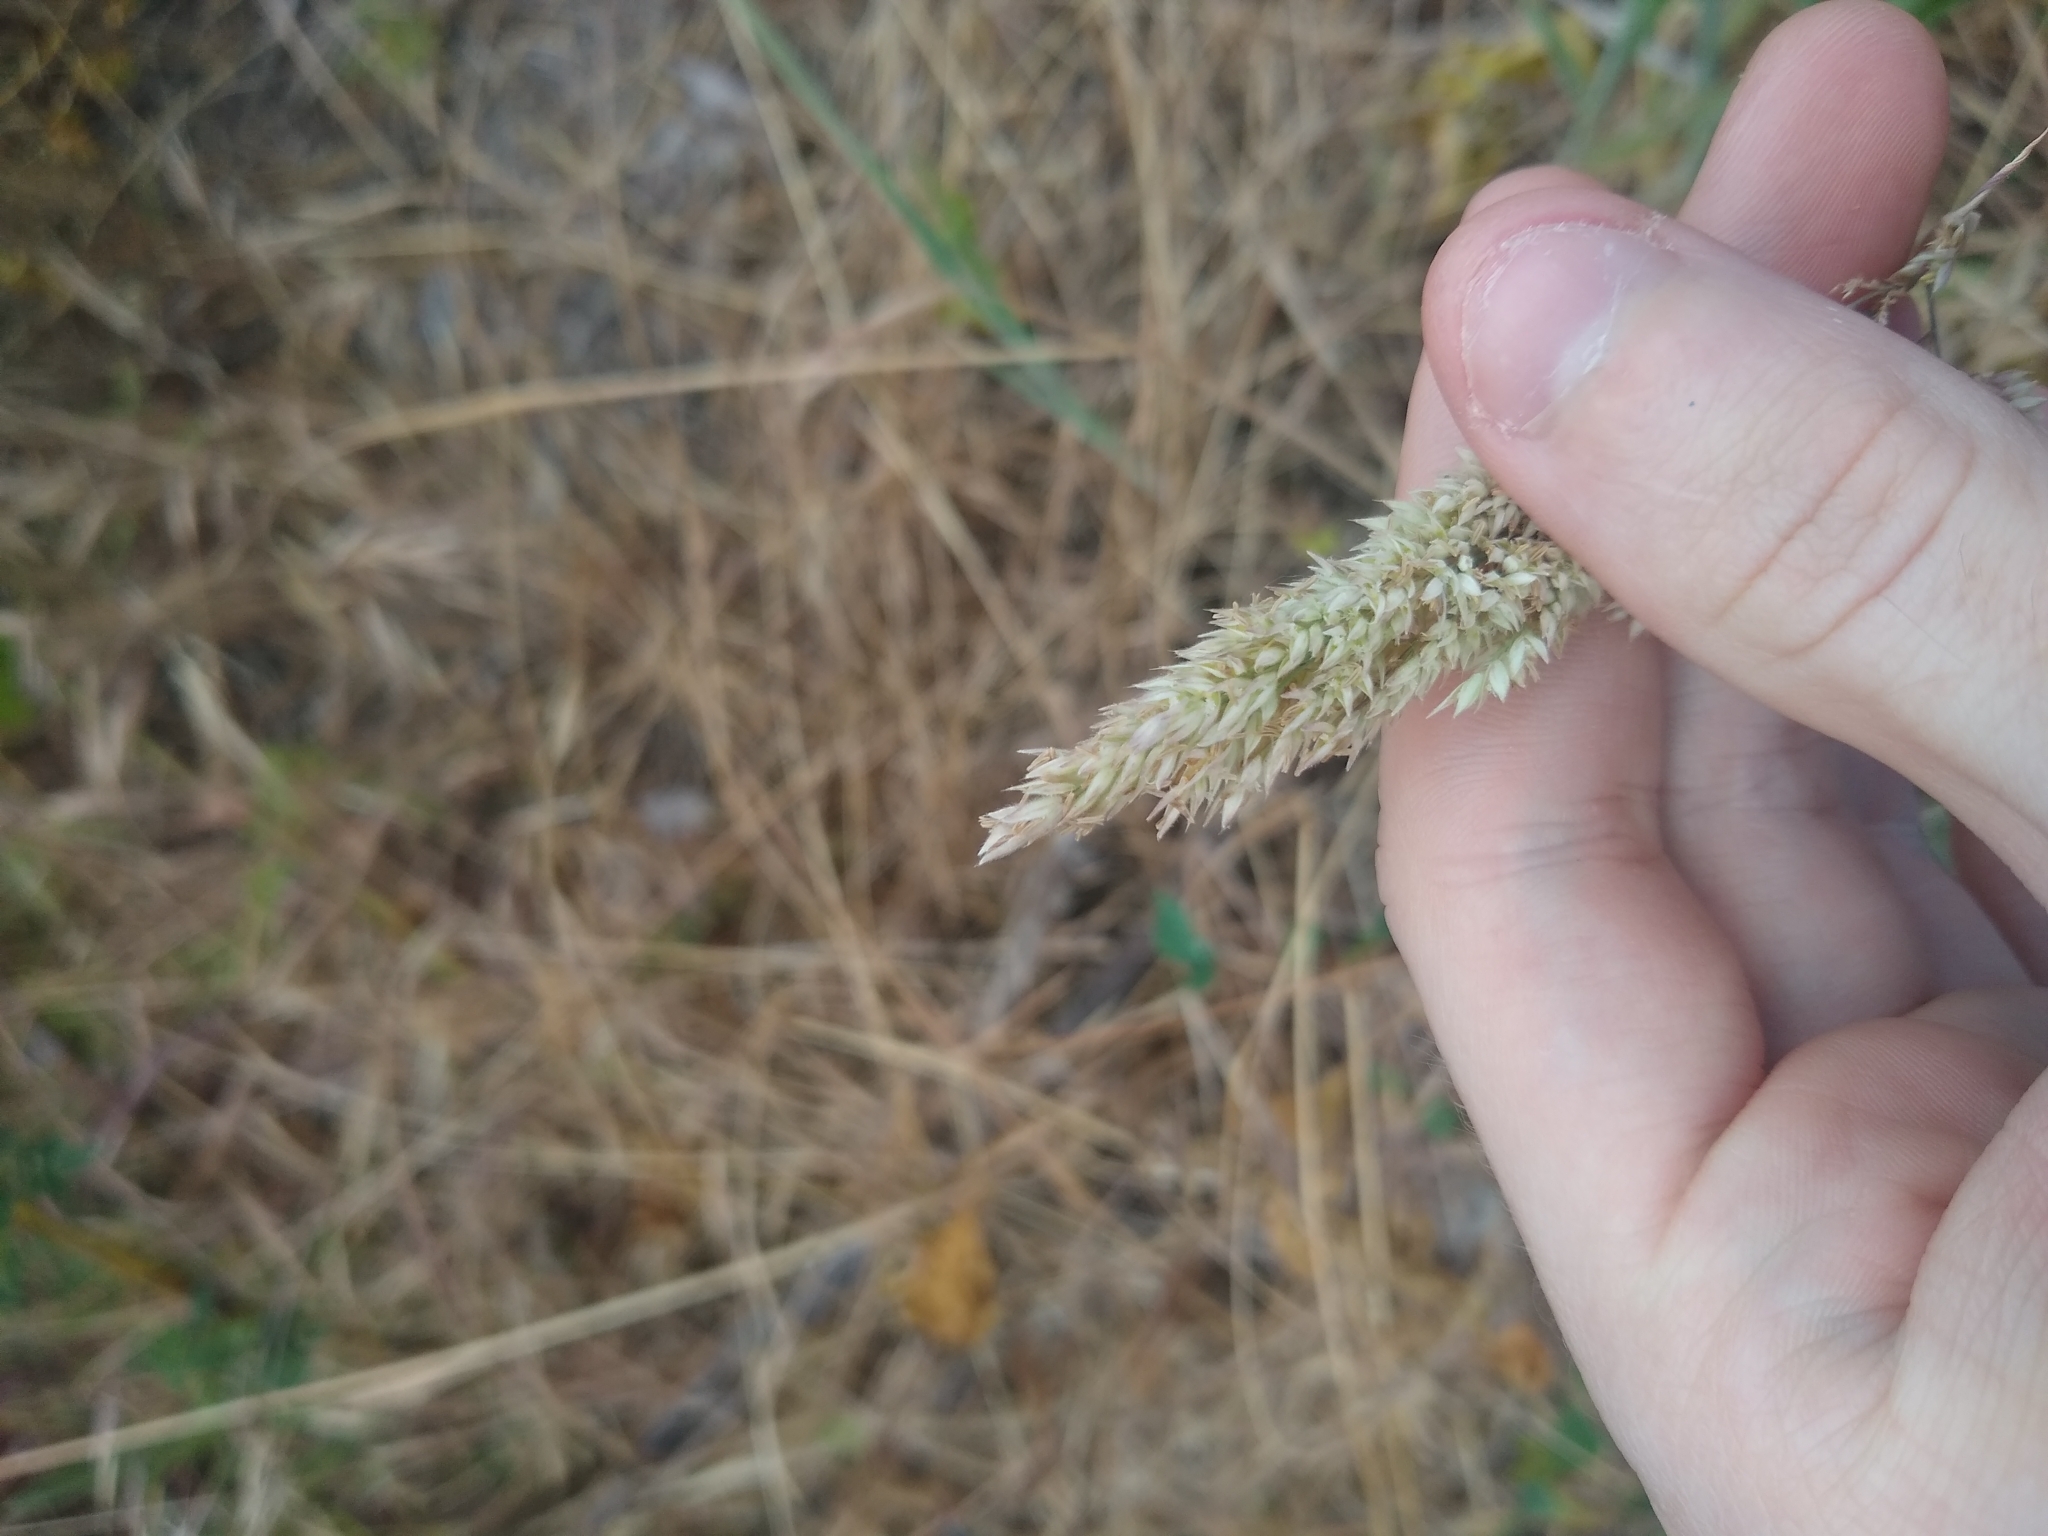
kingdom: Plantae
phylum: Tracheophyta
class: Liliopsida
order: Poales
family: Poaceae
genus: Holcus
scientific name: Holcus lanatus
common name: Yorkshire-fog
